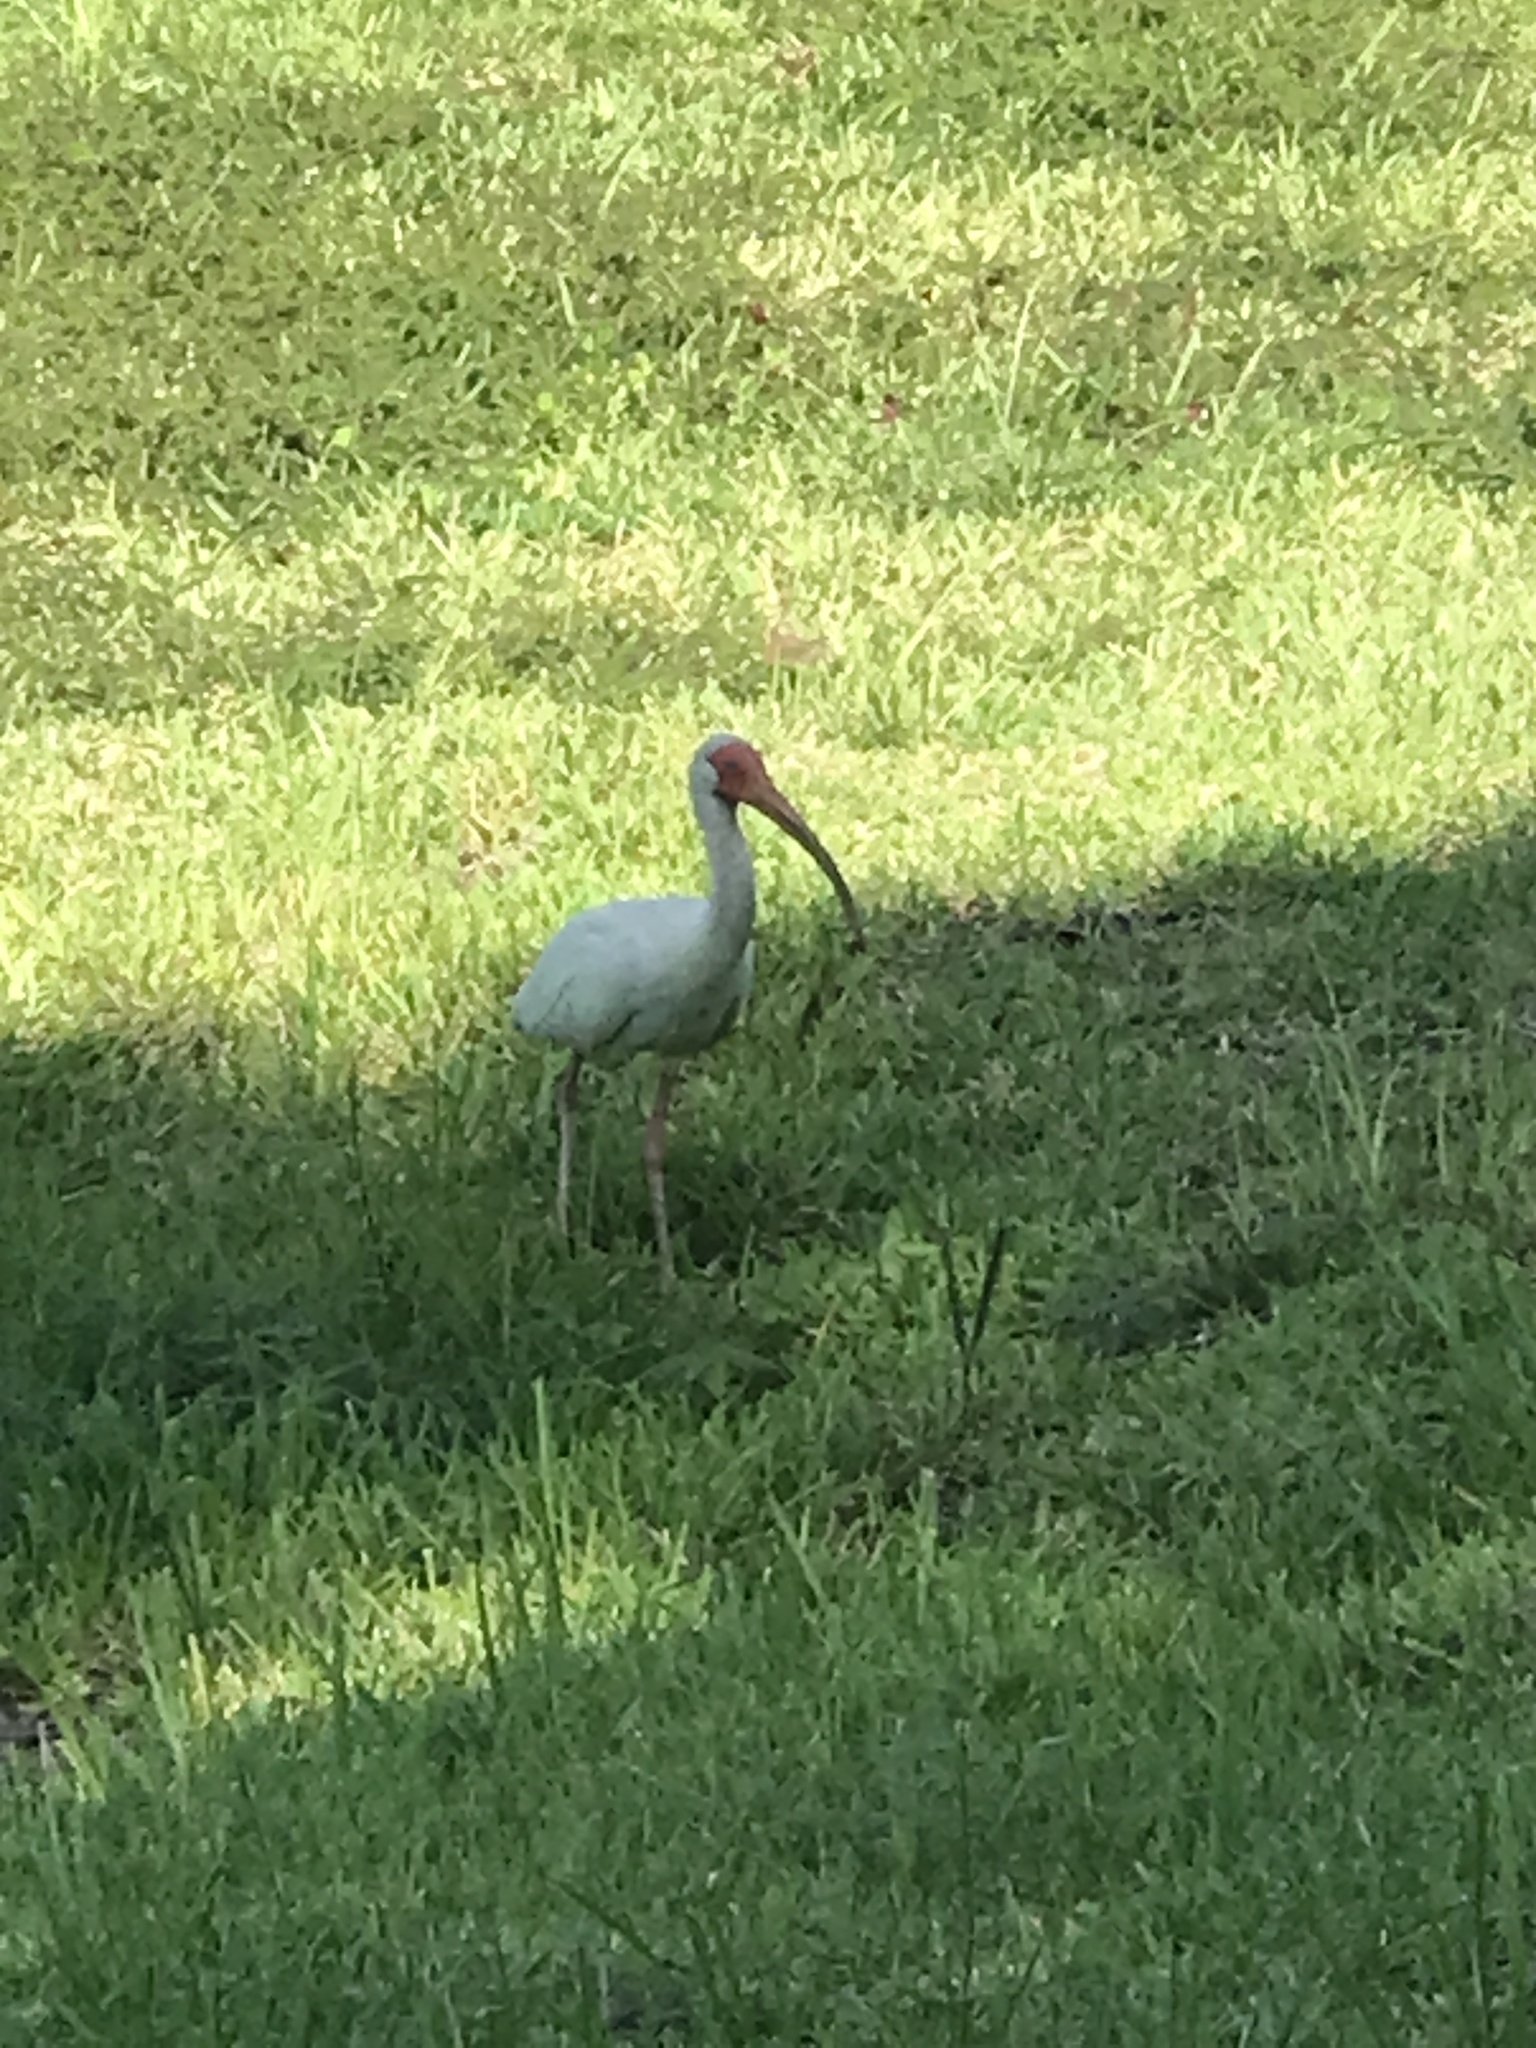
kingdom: Animalia
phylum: Chordata
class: Aves
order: Pelecaniformes
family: Threskiornithidae
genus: Eudocimus
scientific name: Eudocimus albus
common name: White ibis
